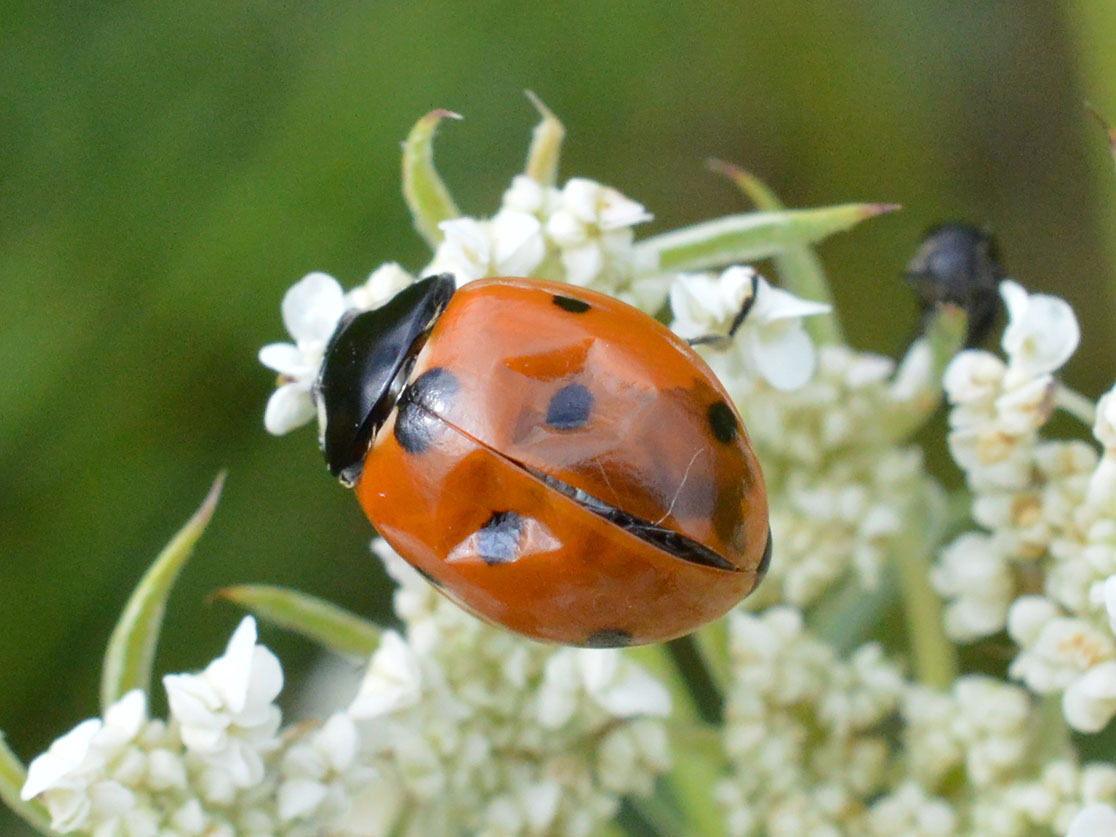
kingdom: Animalia
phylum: Arthropoda
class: Insecta
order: Coleoptera
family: Coccinellidae
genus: Coccinella
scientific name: Coccinella septempunctata
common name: Sevenspotted lady beetle
